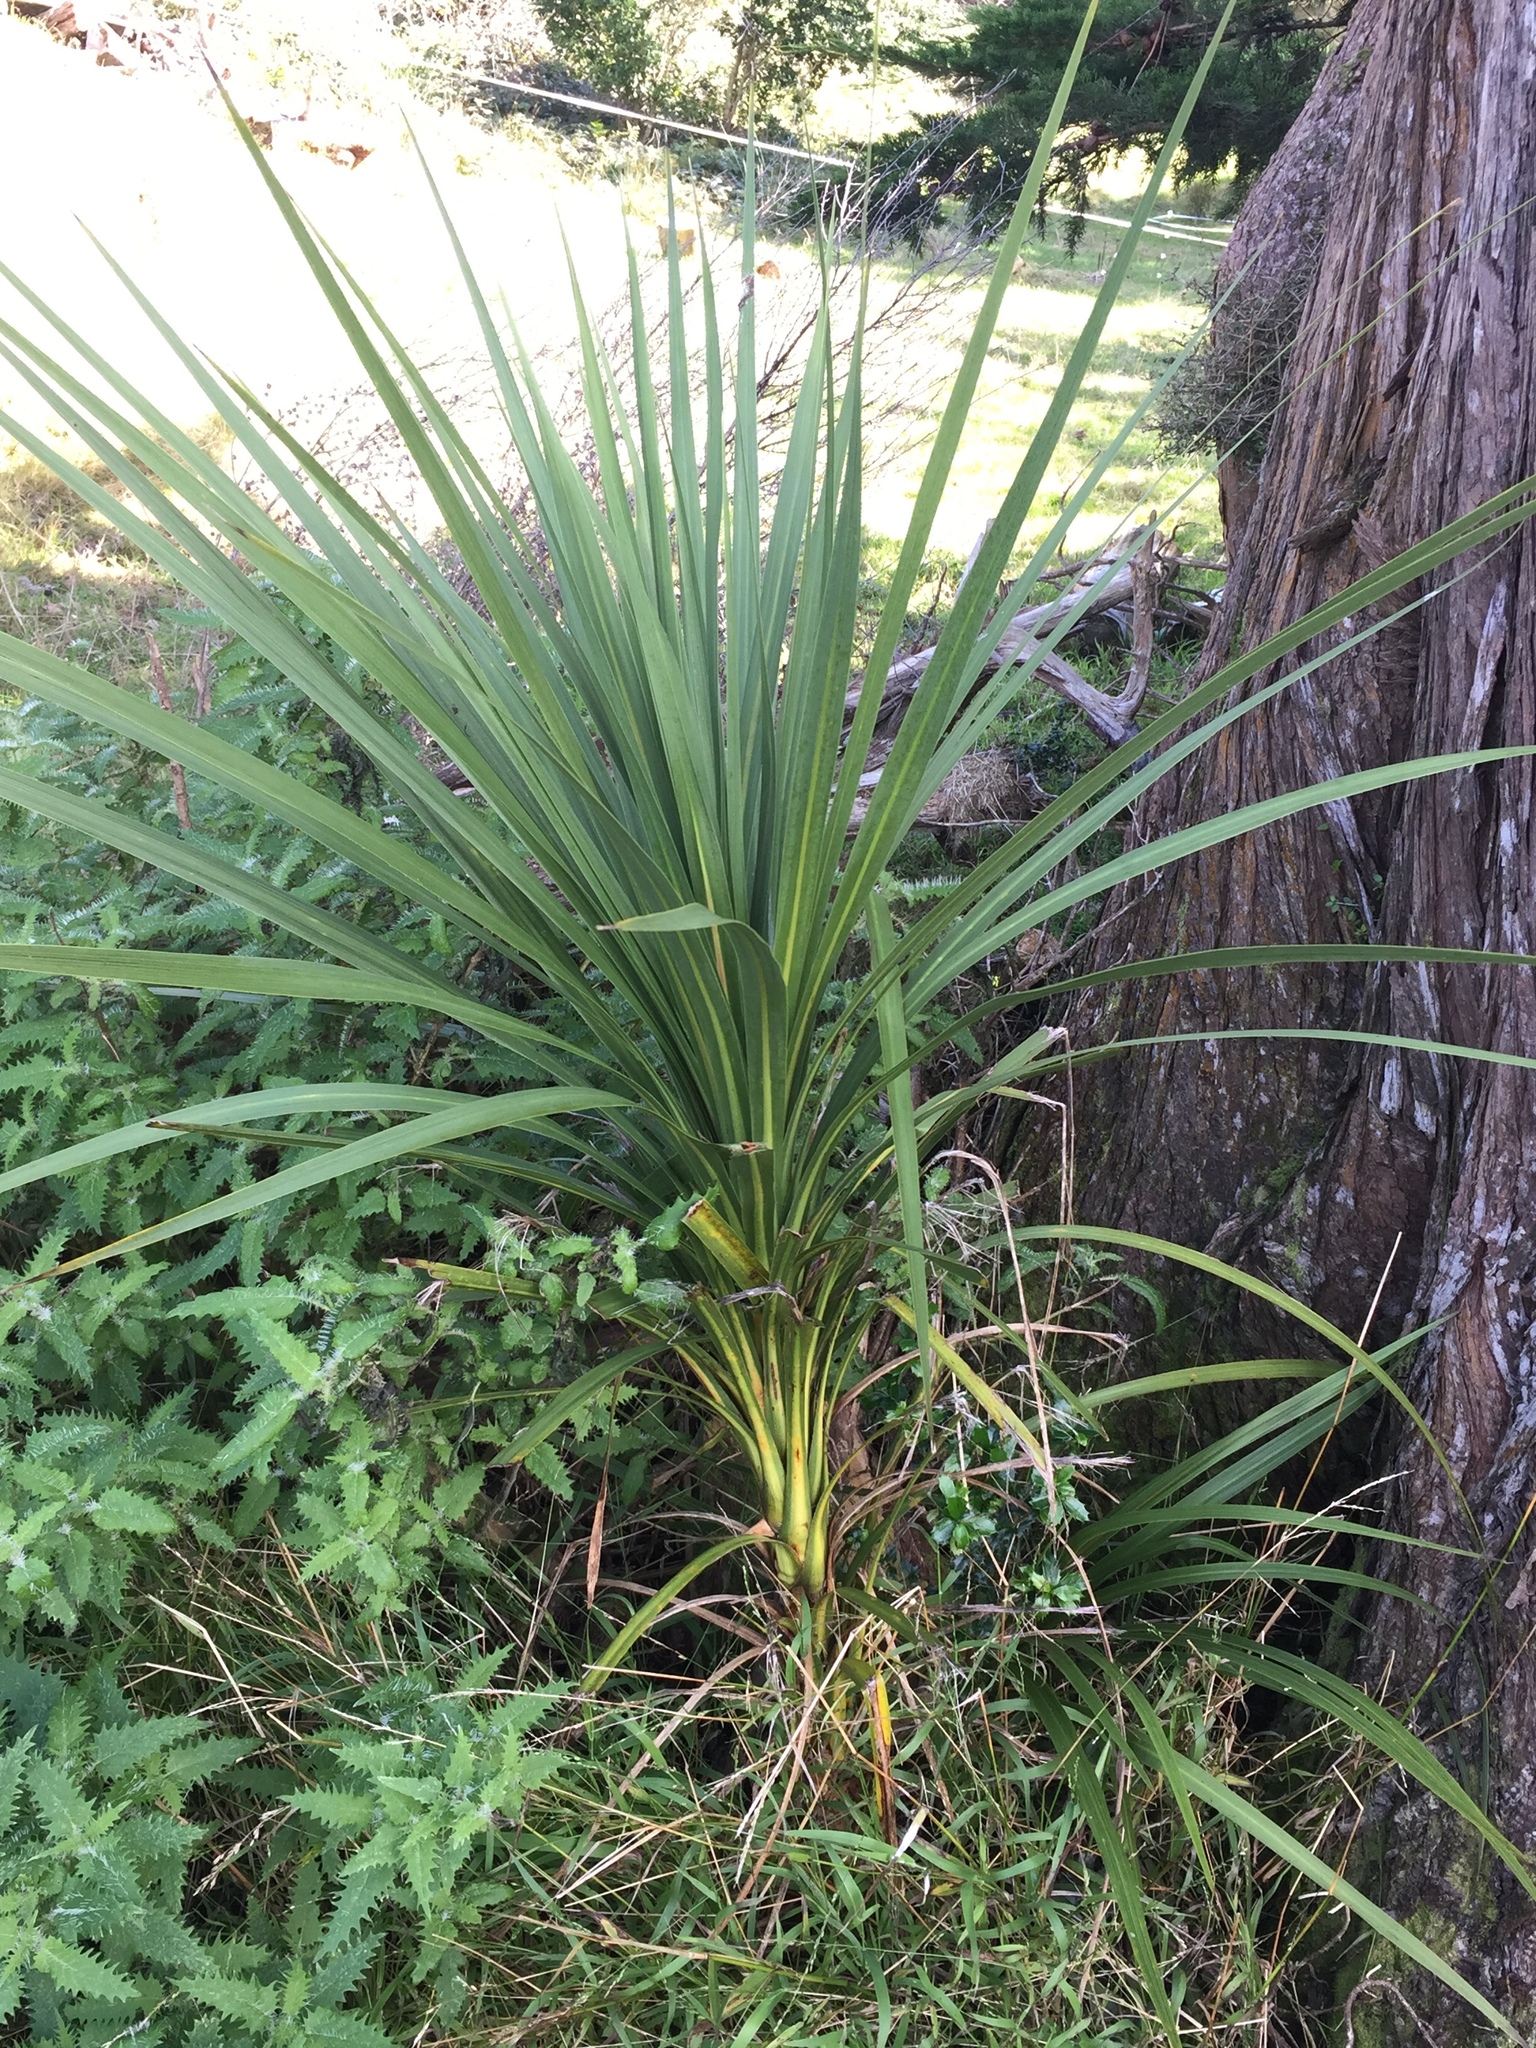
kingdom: Plantae
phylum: Tracheophyta
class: Liliopsida
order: Asparagales
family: Asparagaceae
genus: Cordyline
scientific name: Cordyline australis
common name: Cabbage-palm
